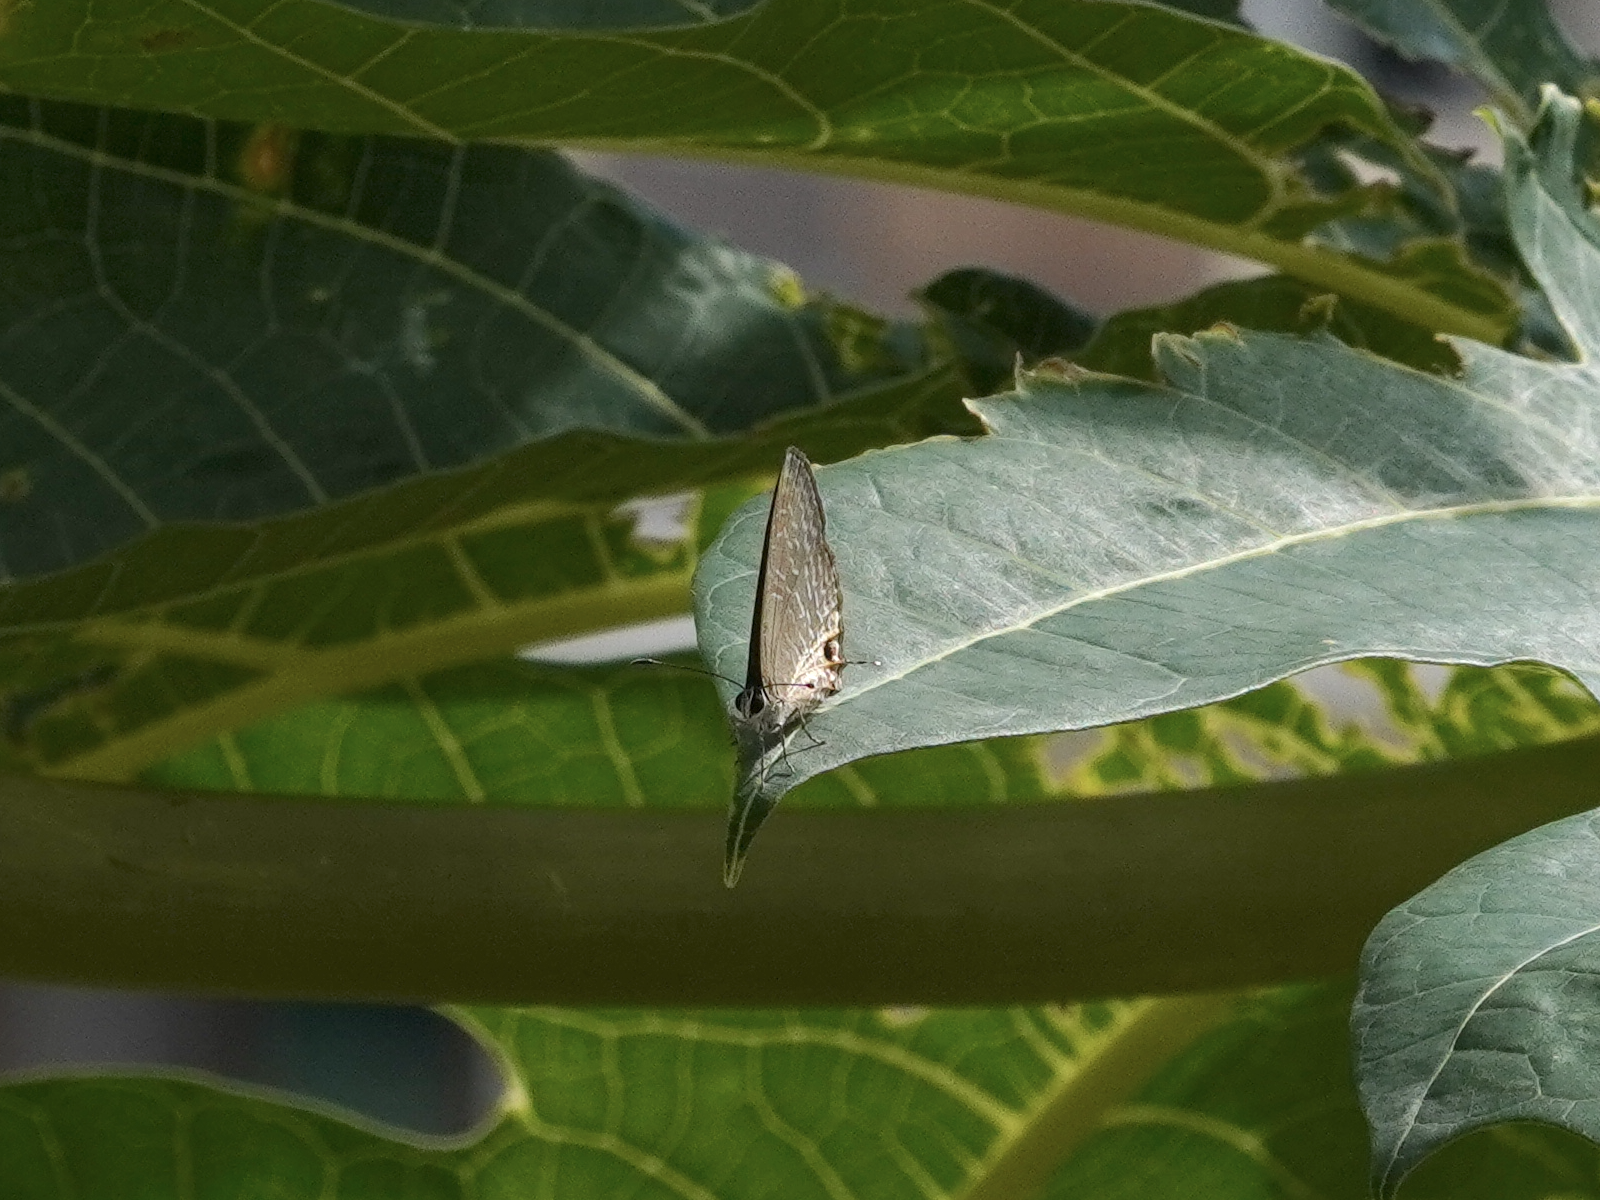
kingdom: Animalia
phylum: Arthropoda
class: Insecta
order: Lepidoptera
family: Lycaenidae
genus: Jamides
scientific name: Jamides alecto
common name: Metallic cerulean
